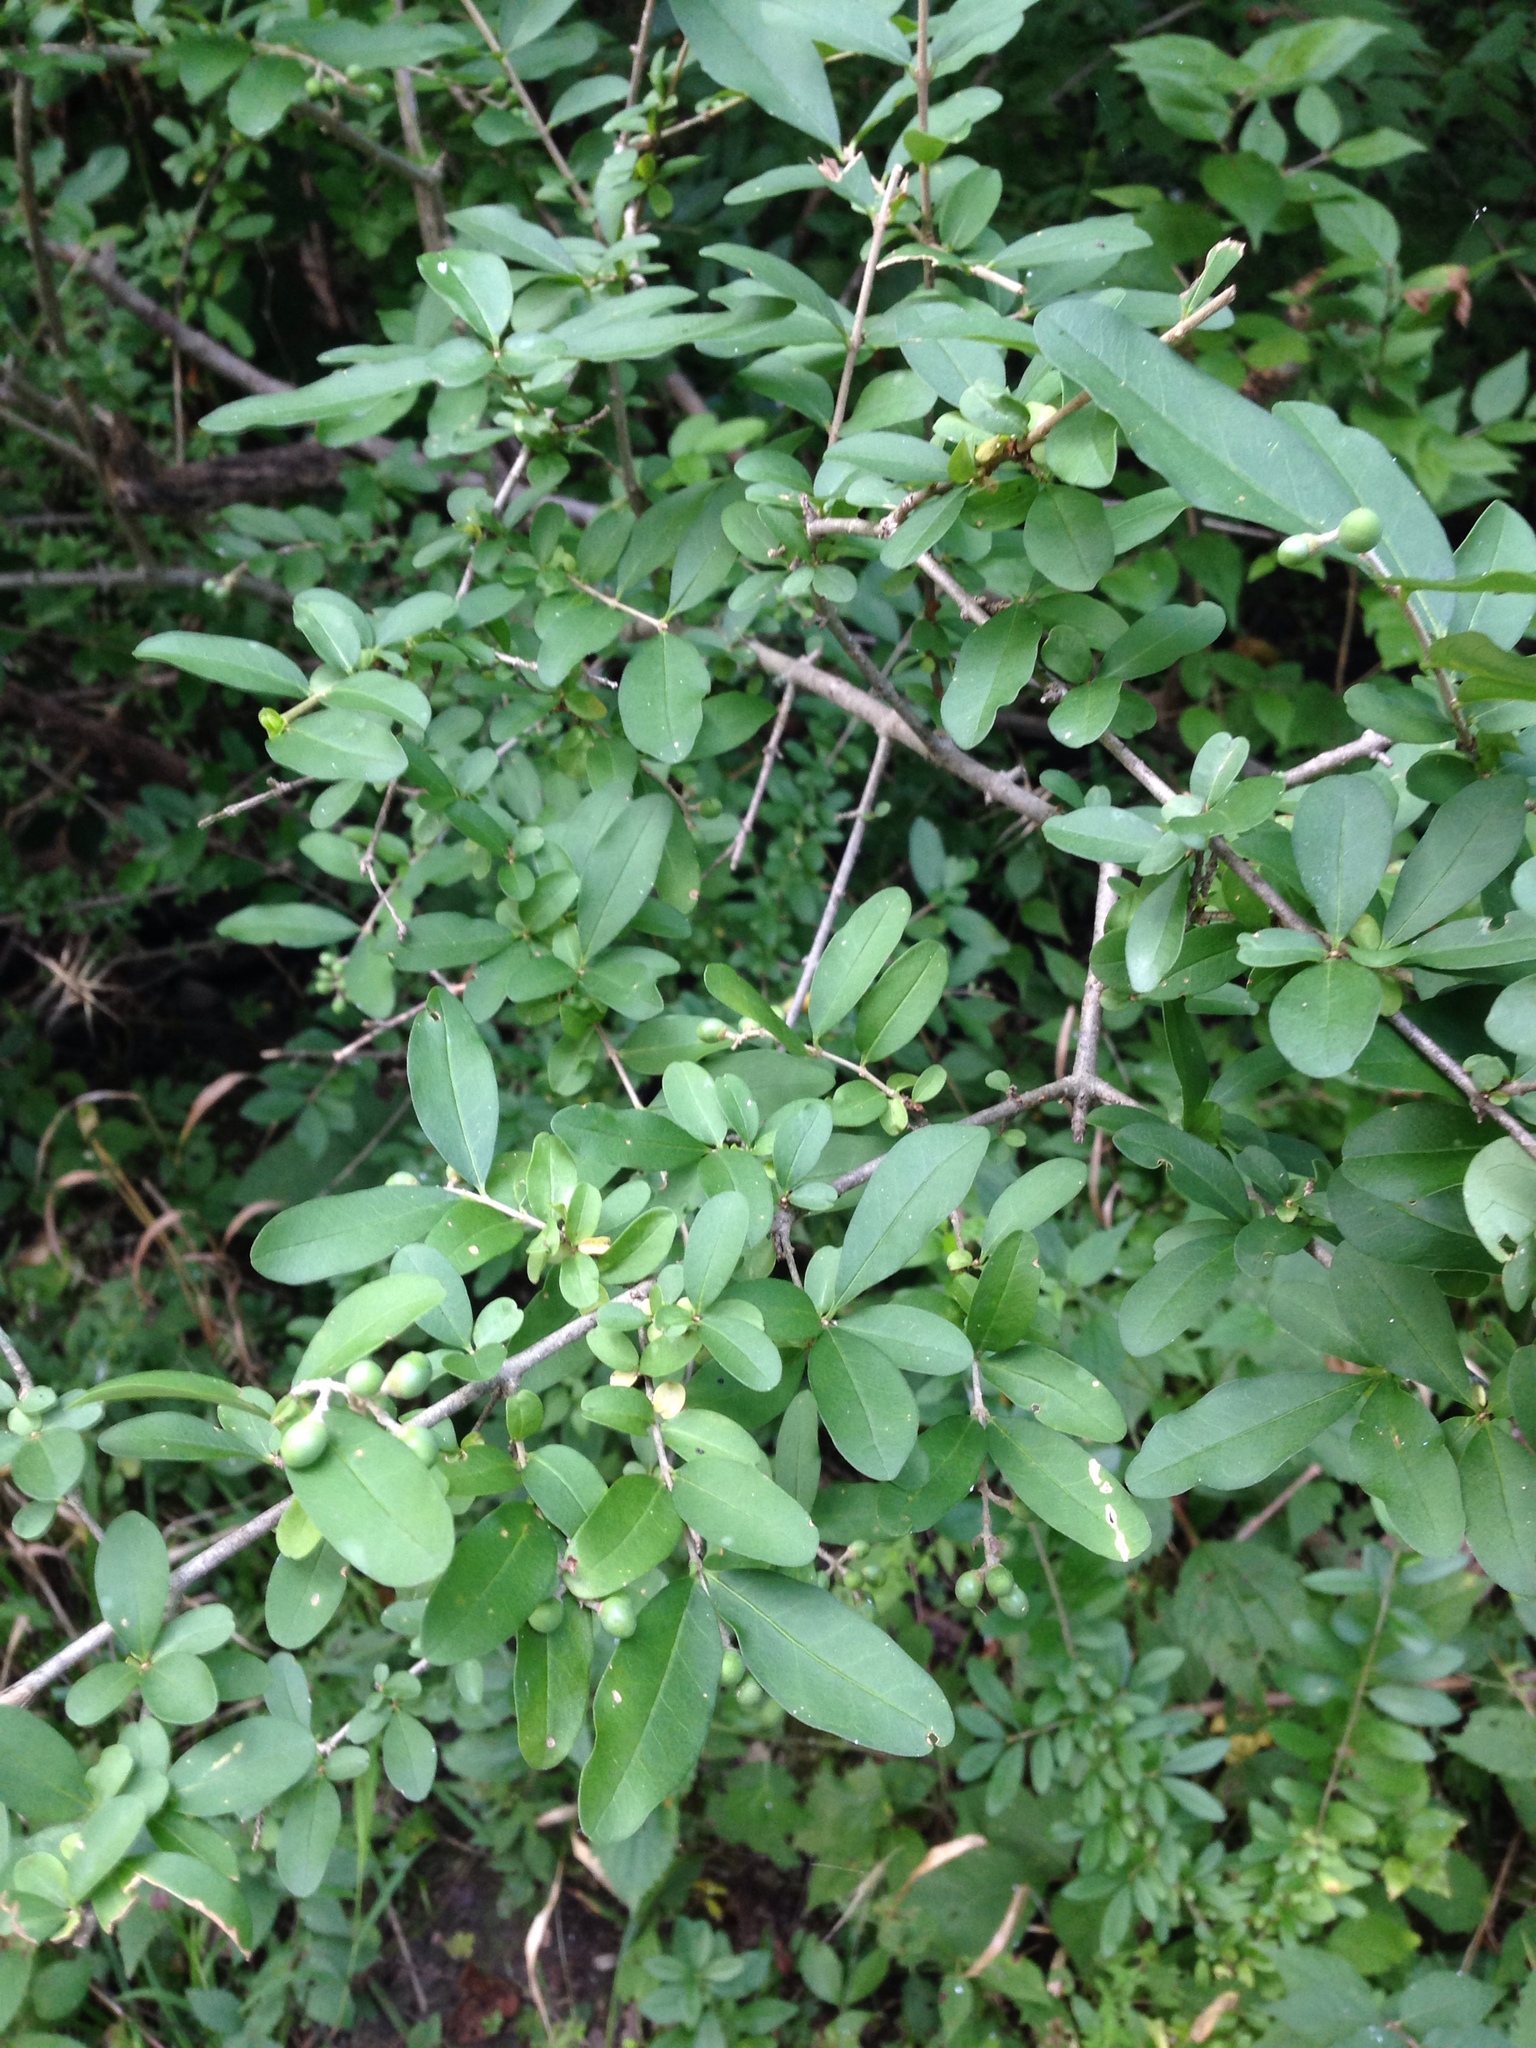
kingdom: Plantae
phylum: Tracheophyta
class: Magnoliopsida
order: Lamiales
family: Oleaceae
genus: Ligustrum
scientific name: Ligustrum obtusifolium
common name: Border privet
